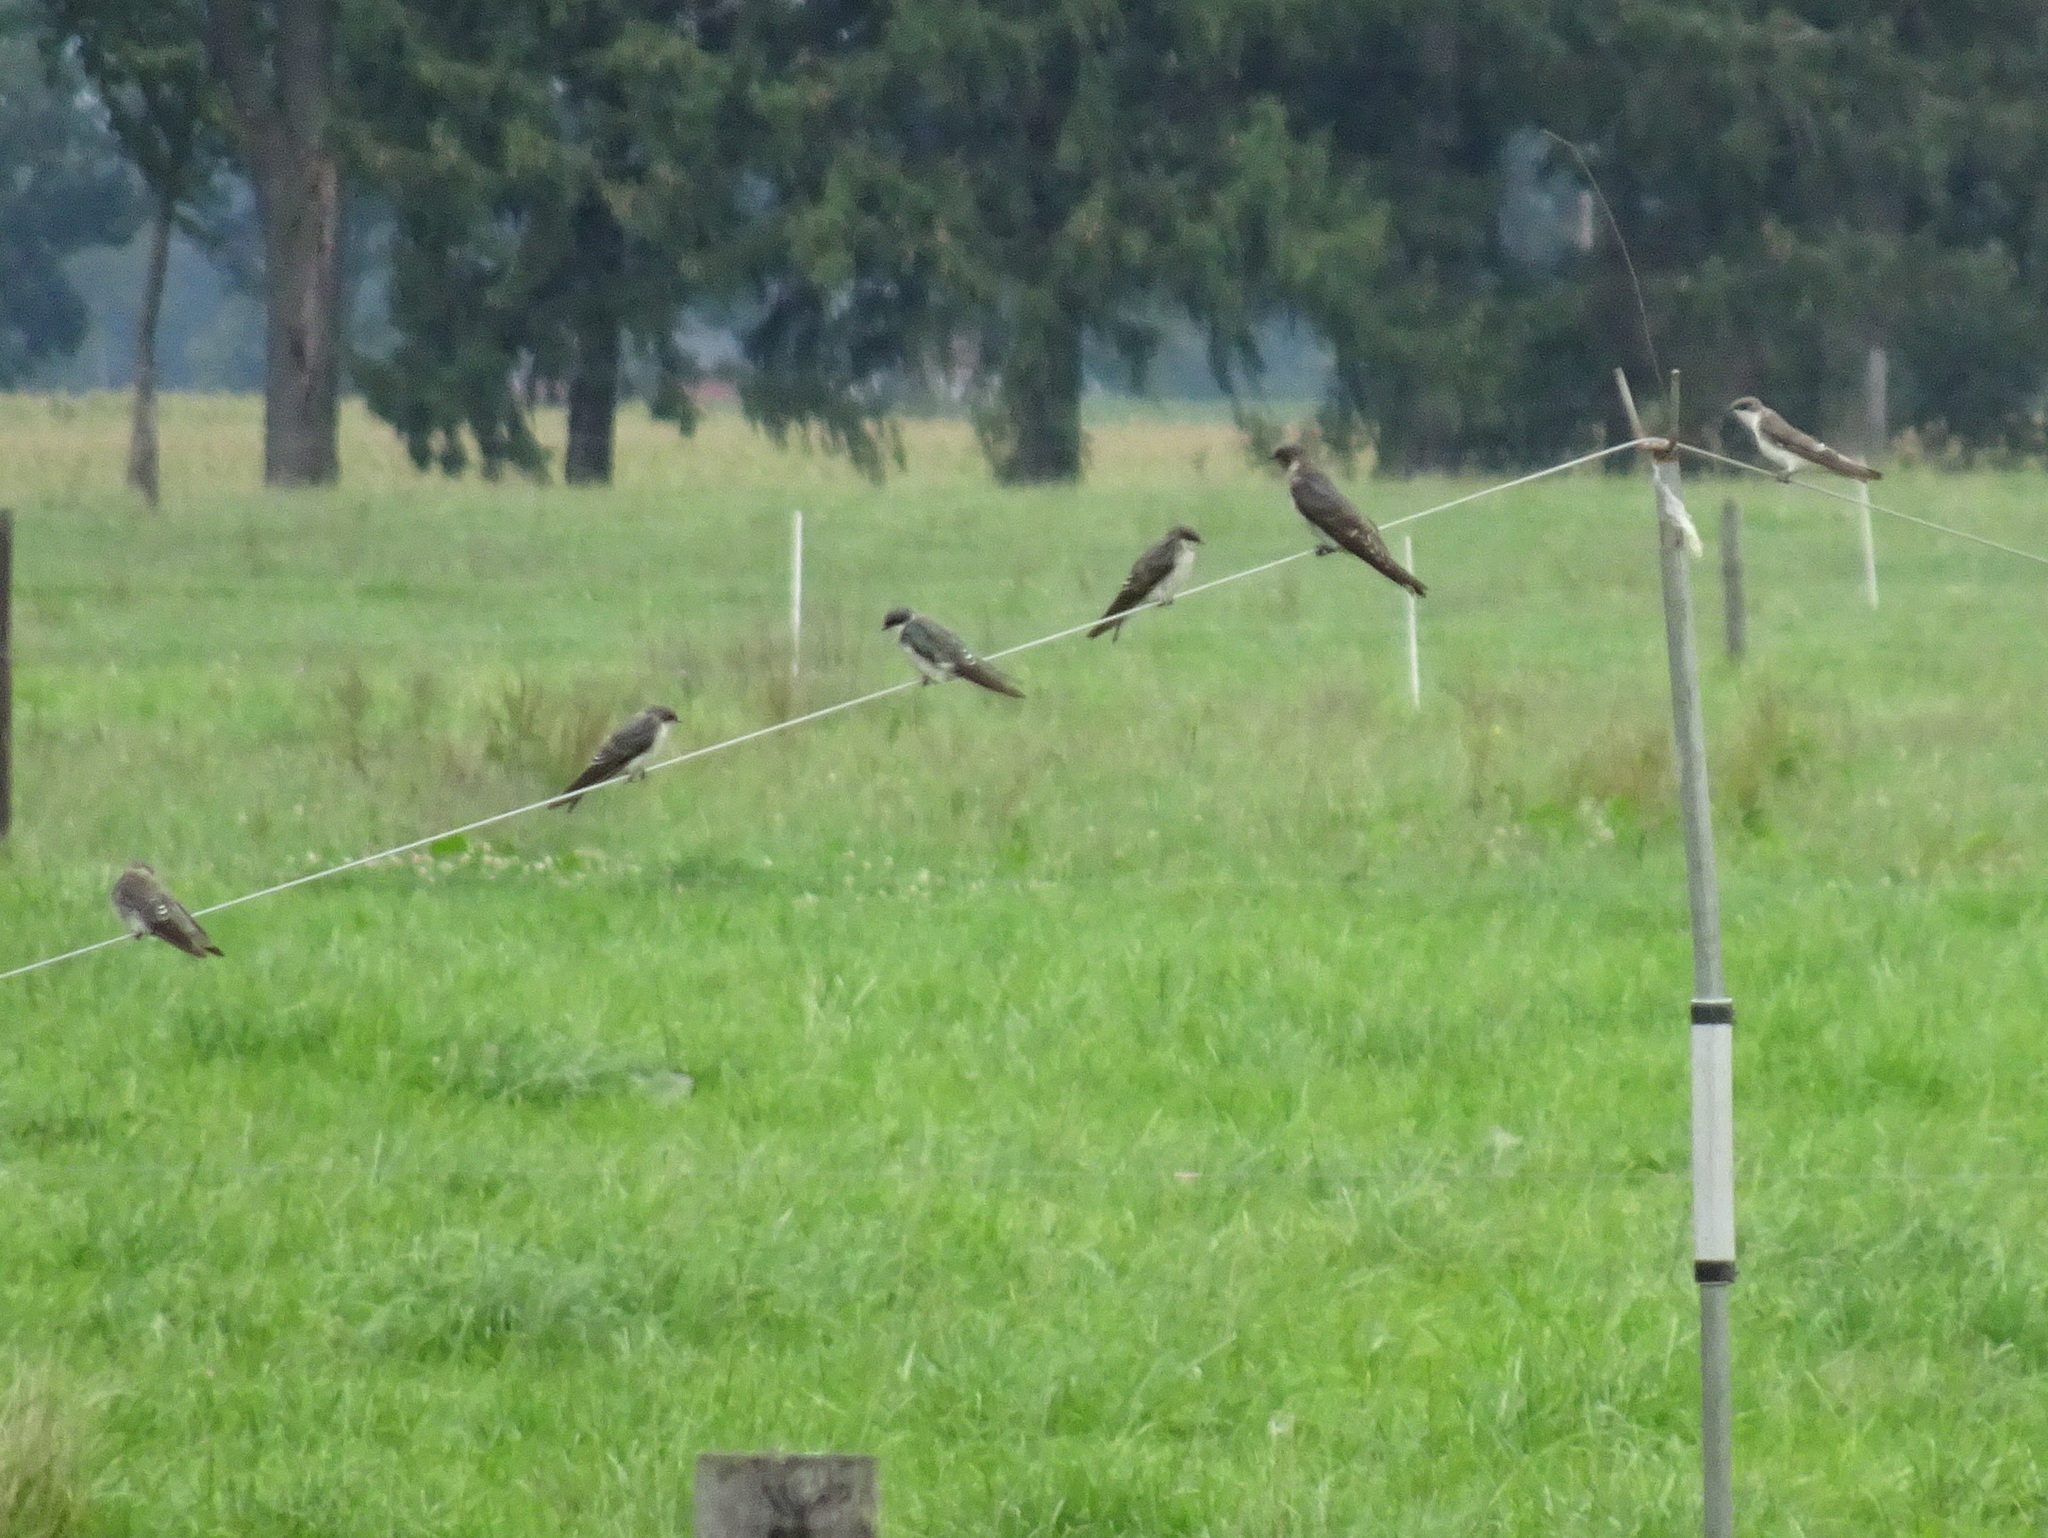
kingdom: Animalia
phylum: Chordata
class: Aves
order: Passeriformes
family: Hirundinidae
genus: Progne
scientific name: Progne subis
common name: Purple martin
